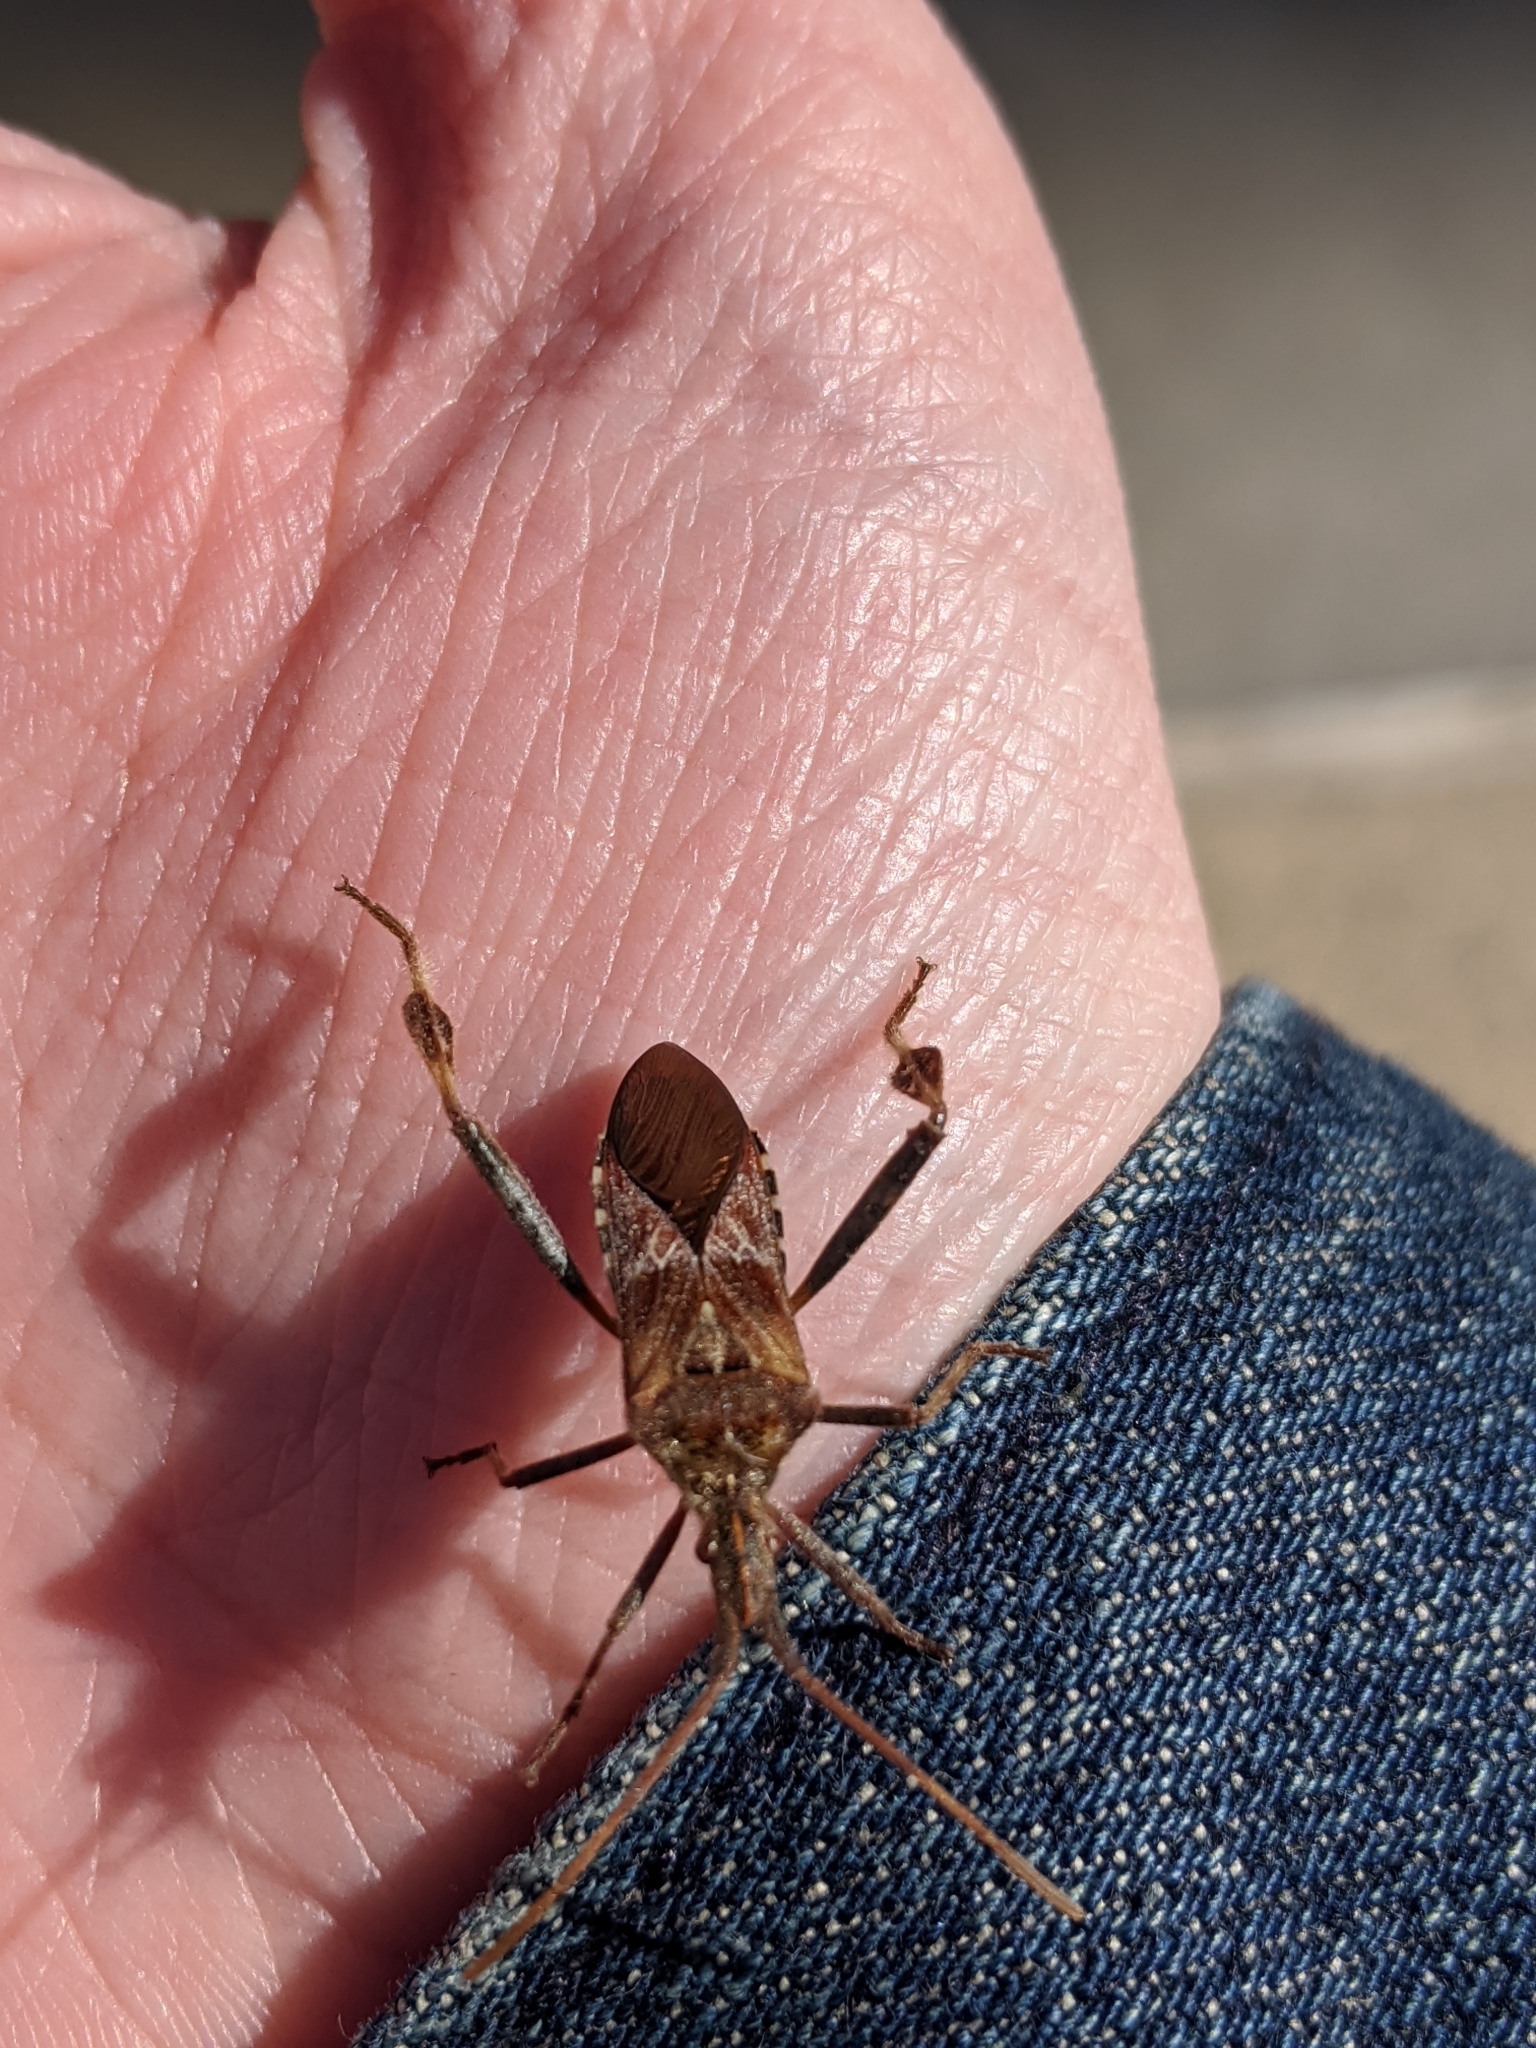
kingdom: Animalia
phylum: Arthropoda
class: Insecta
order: Hemiptera
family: Coreidae
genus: Leptoglossus
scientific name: Leptoglossus occidentalis
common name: Western conifer-seed bug
